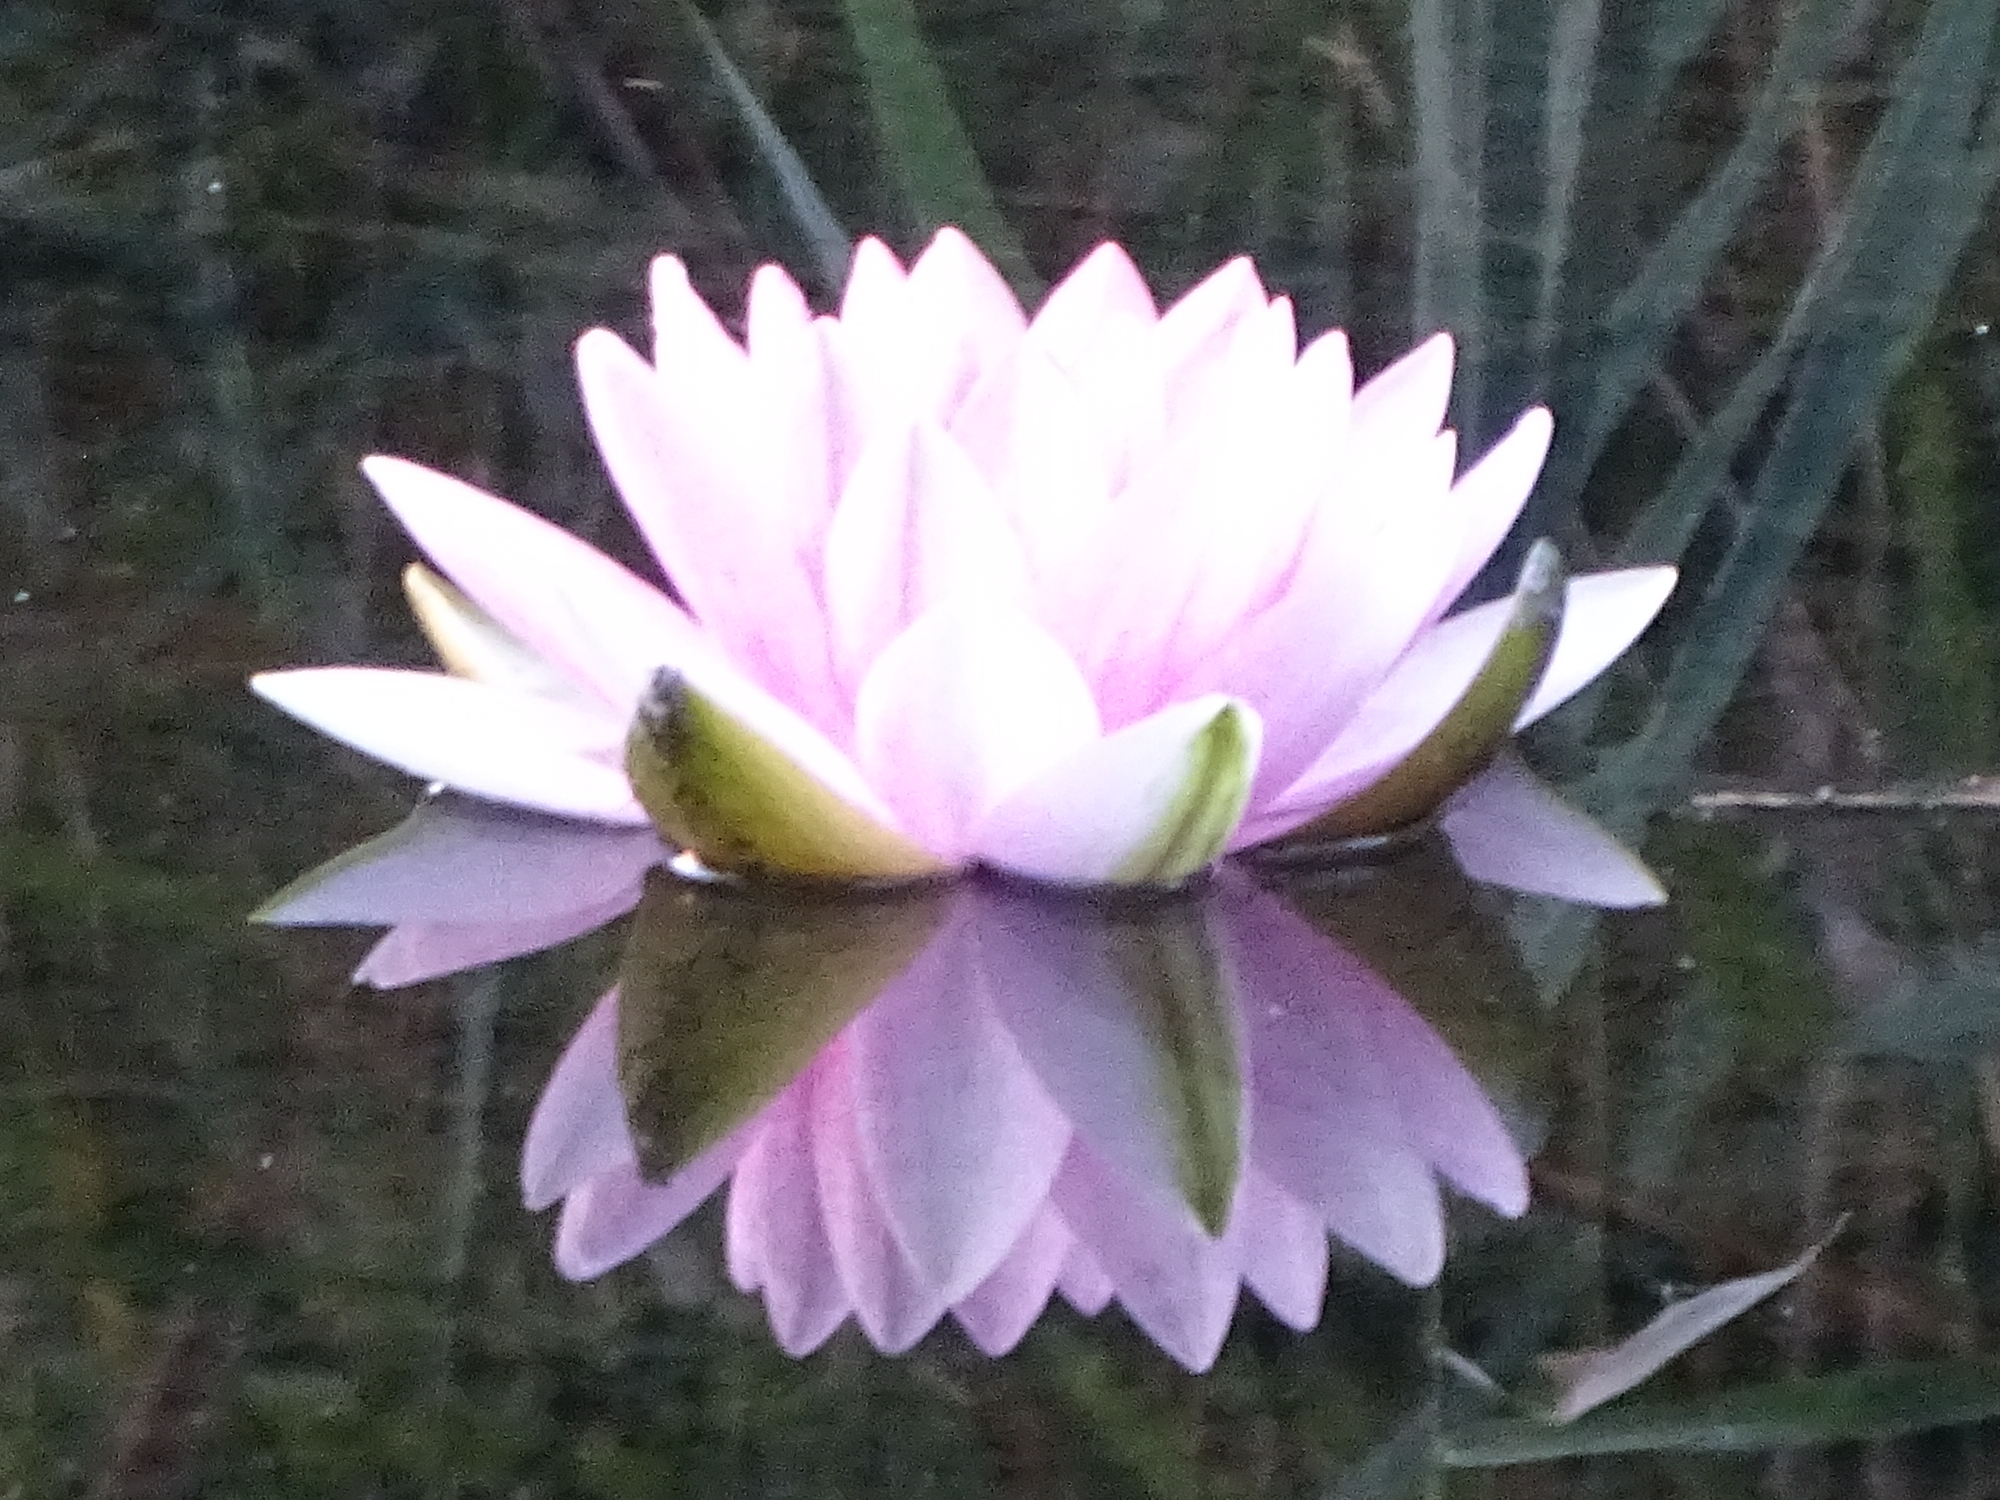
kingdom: Plantae
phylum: Tracheophyta
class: Magnoliopsida
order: Nymphaeales
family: Nymphaeaceae
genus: Nymphaea
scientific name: Nymphaea alba
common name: White water-lily
